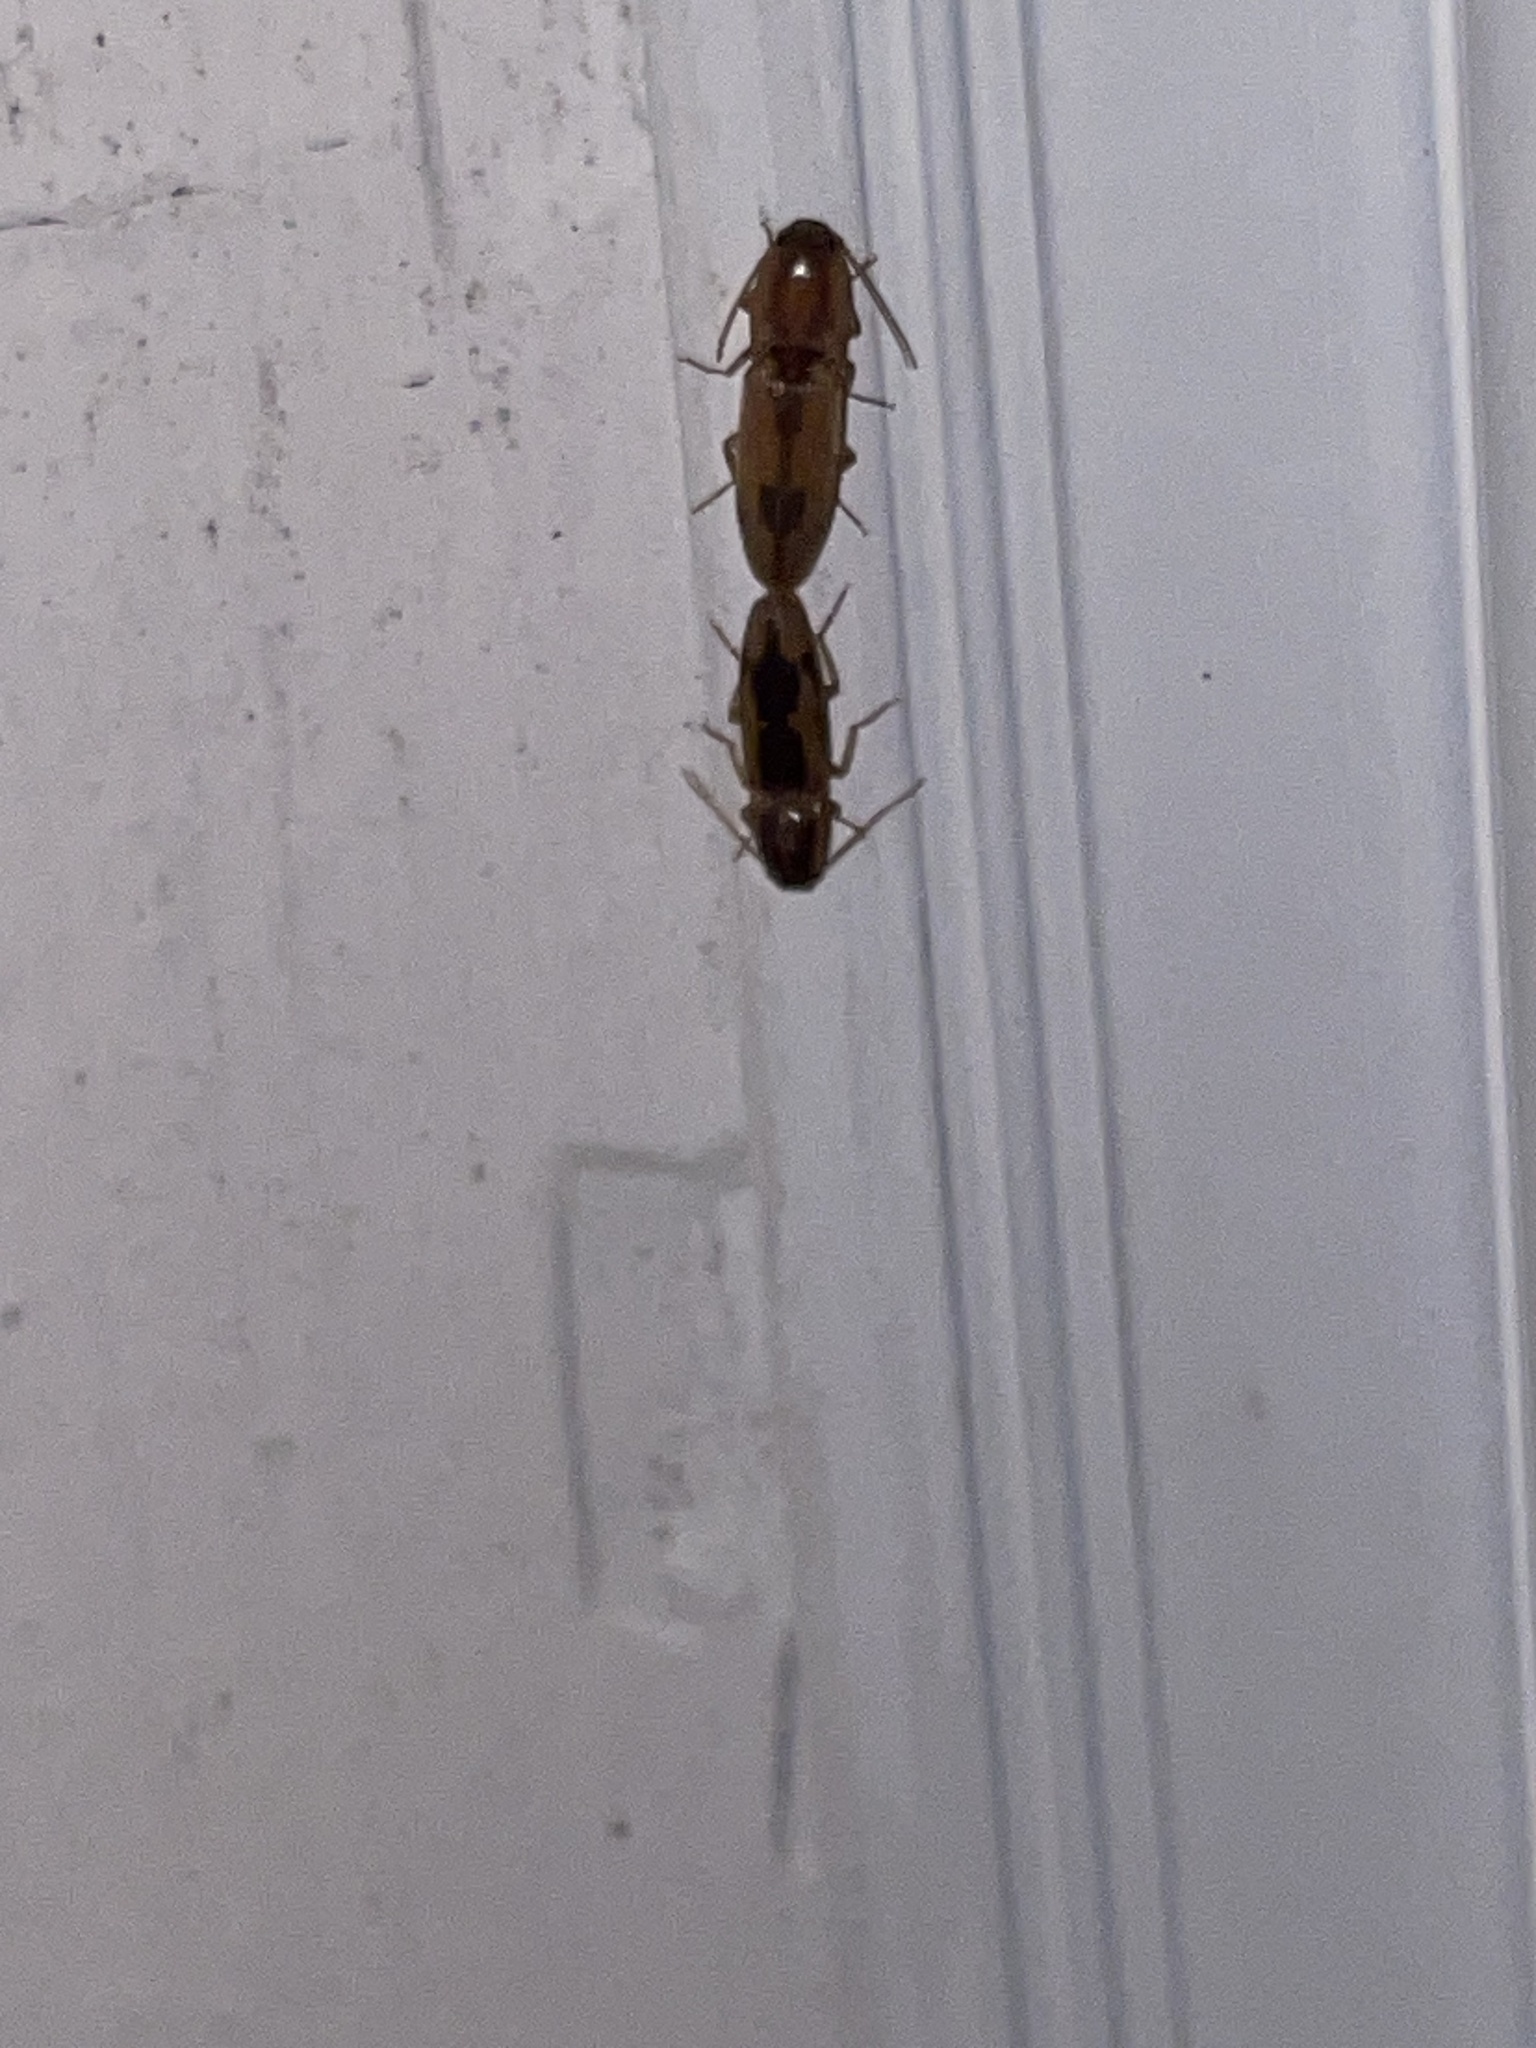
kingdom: Animalia
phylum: Arthropoda
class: Insecta
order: Coleoptera
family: Elateridae
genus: Monocrepidius
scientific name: Monocrepidius
